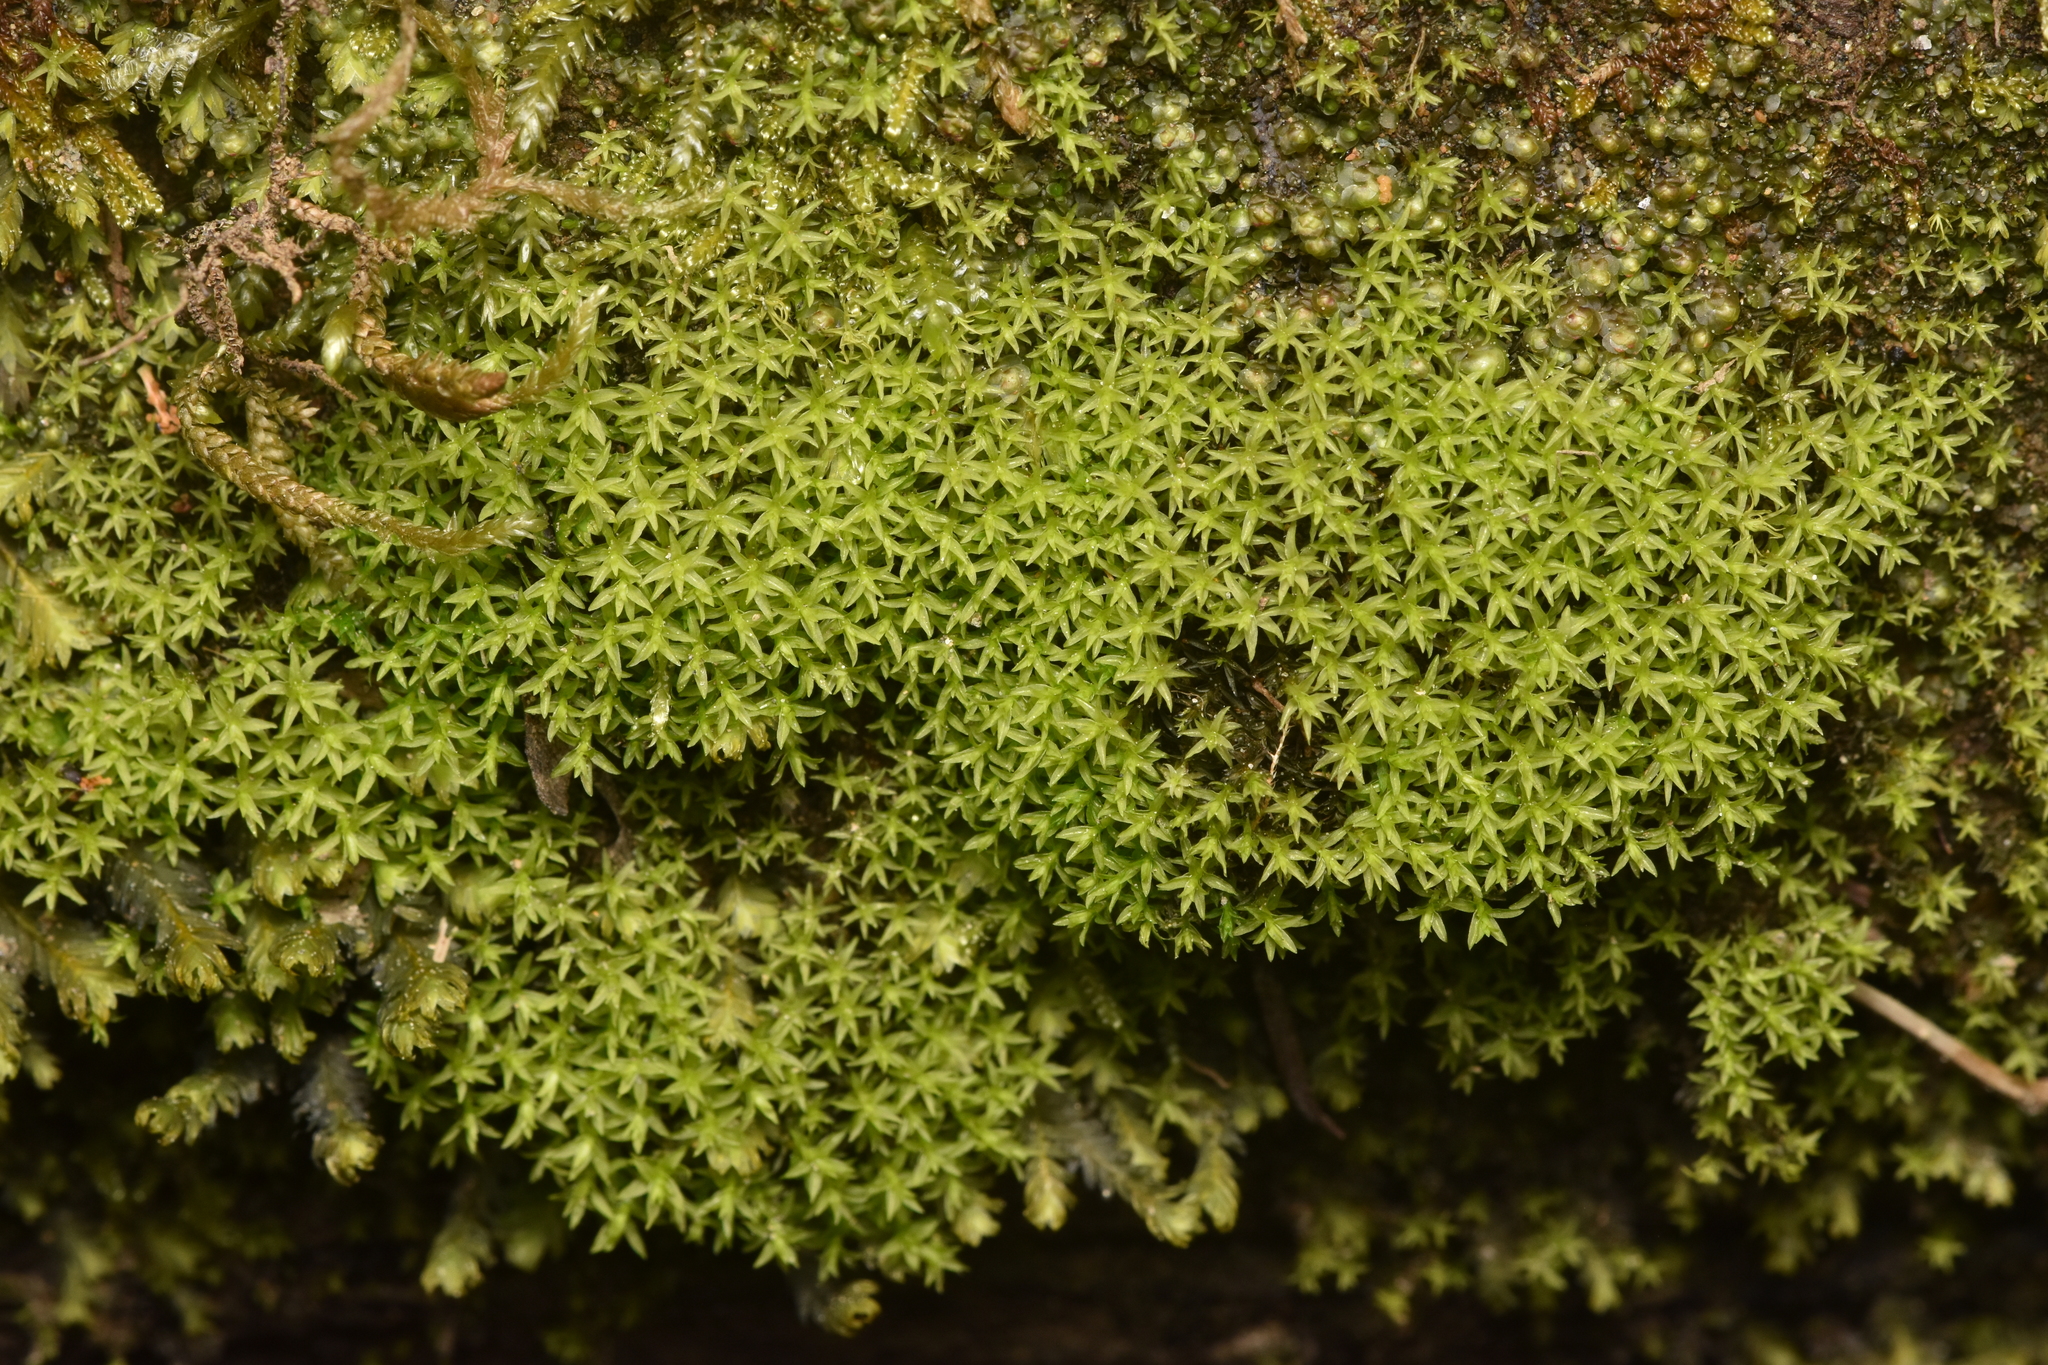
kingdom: Plantae
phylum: Bryophyta
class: Bryopsida
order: Dicranales
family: Aongstroemiaceae
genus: Dichodontium
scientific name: Dichodontium pellucidum
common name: Transparent fork moss
